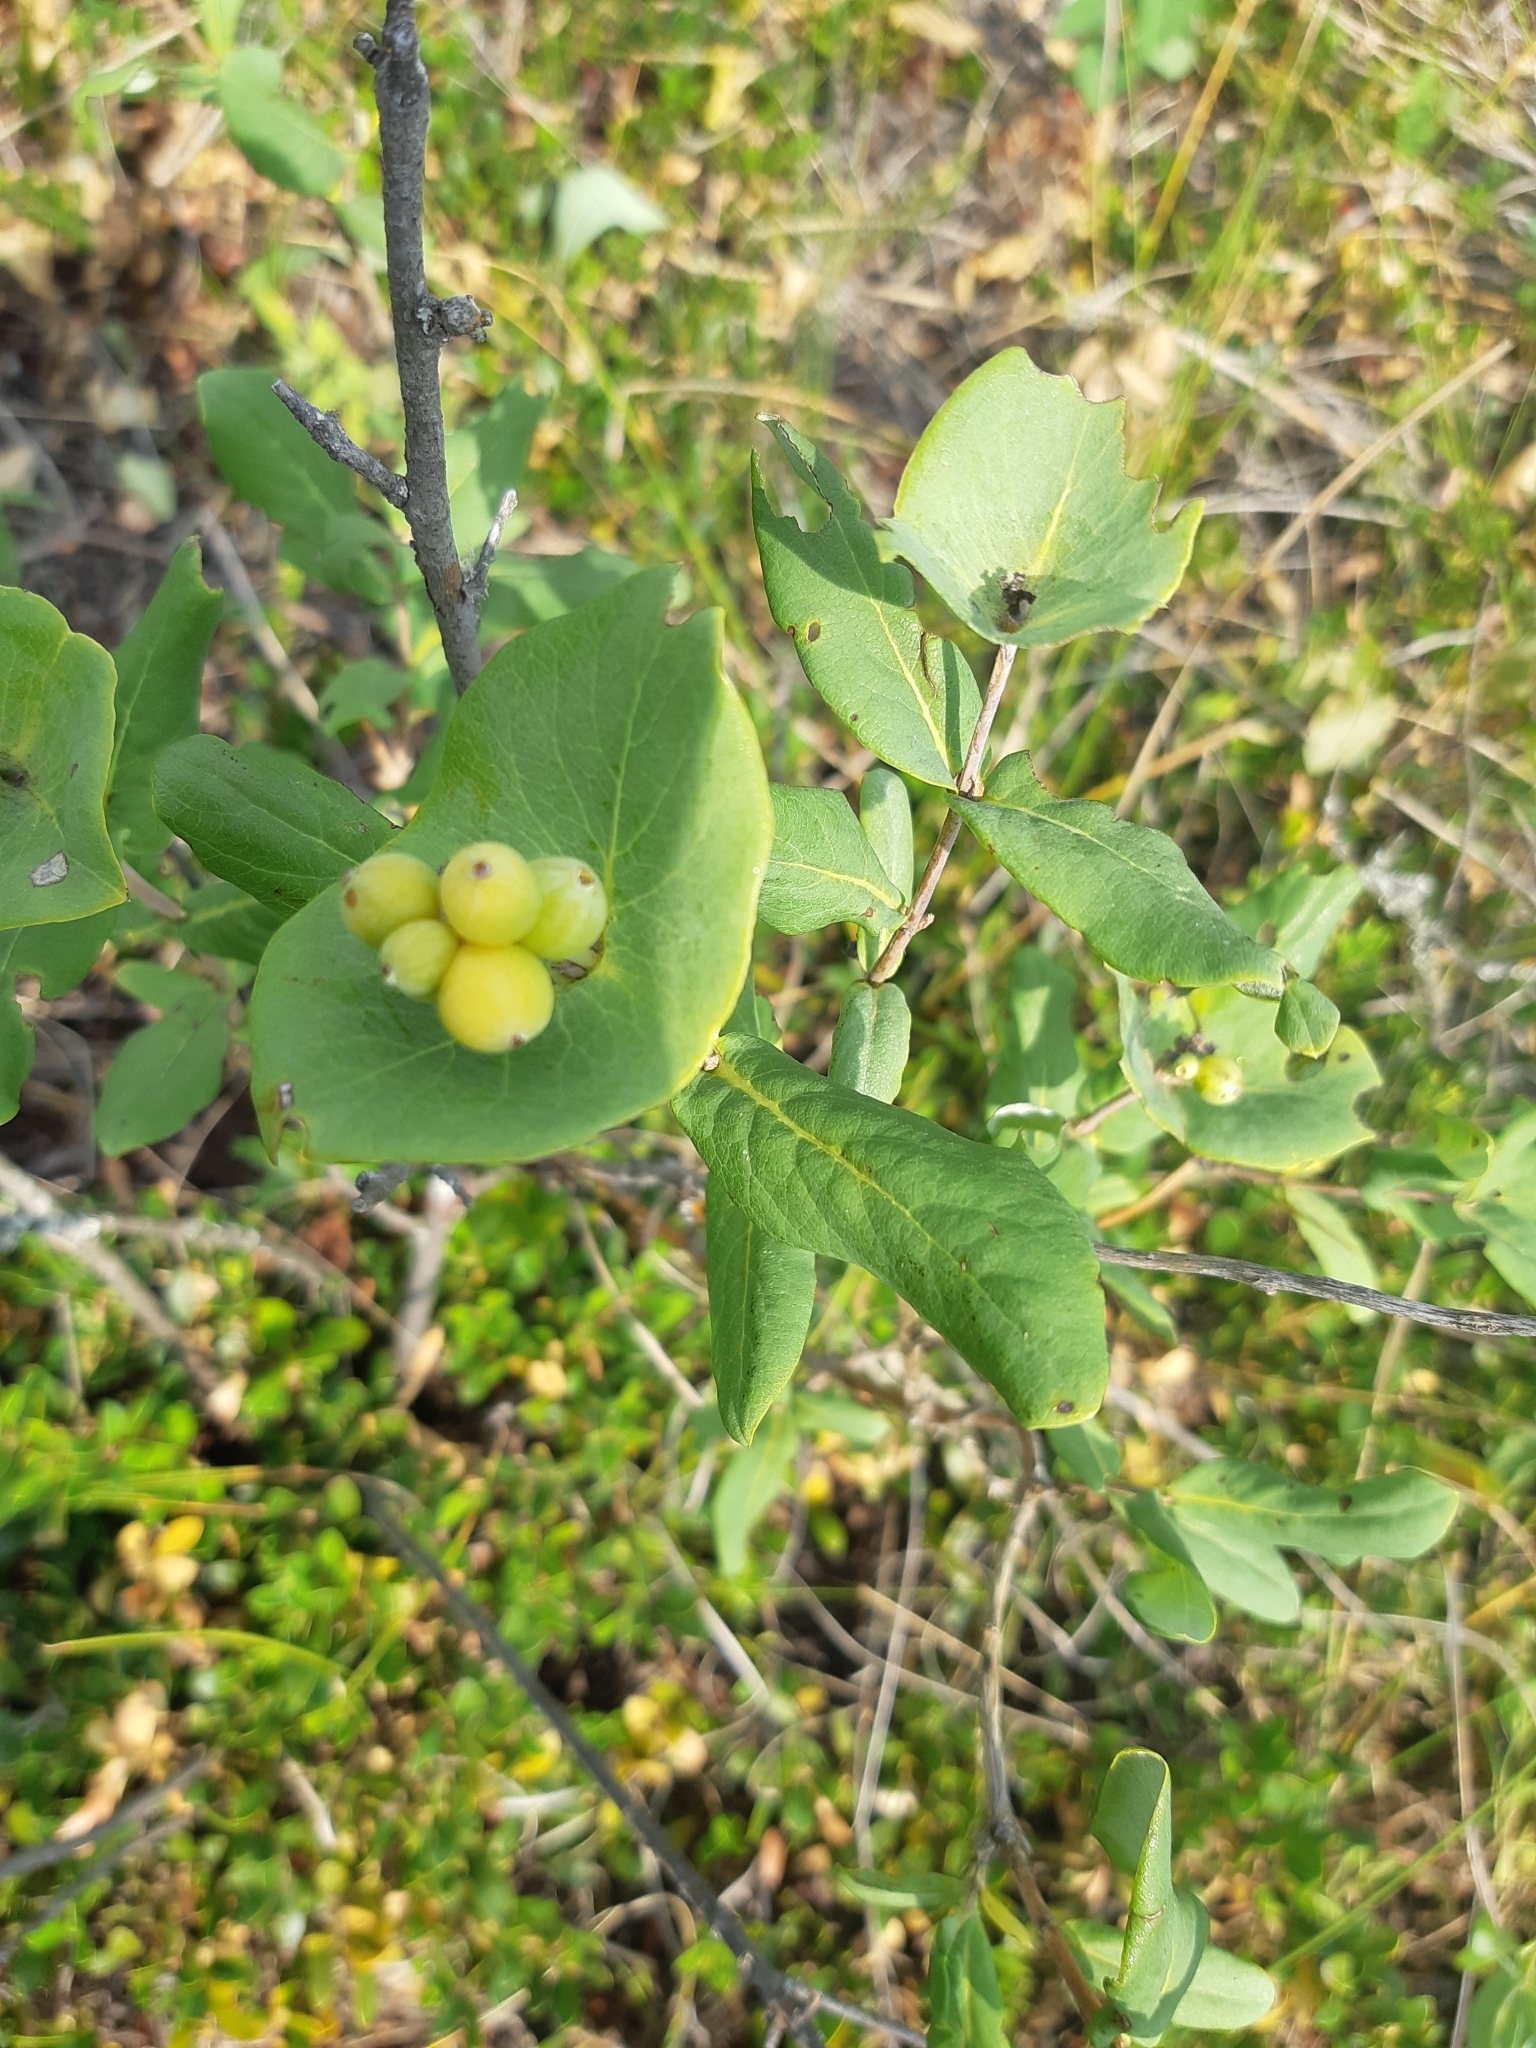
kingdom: Plantae
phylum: Tracheophyta
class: Magnoliopsida
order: Dipsacales
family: Caprifoliaceae
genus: Lonicera
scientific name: Lonicera dioica
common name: Limber honeysuckle
